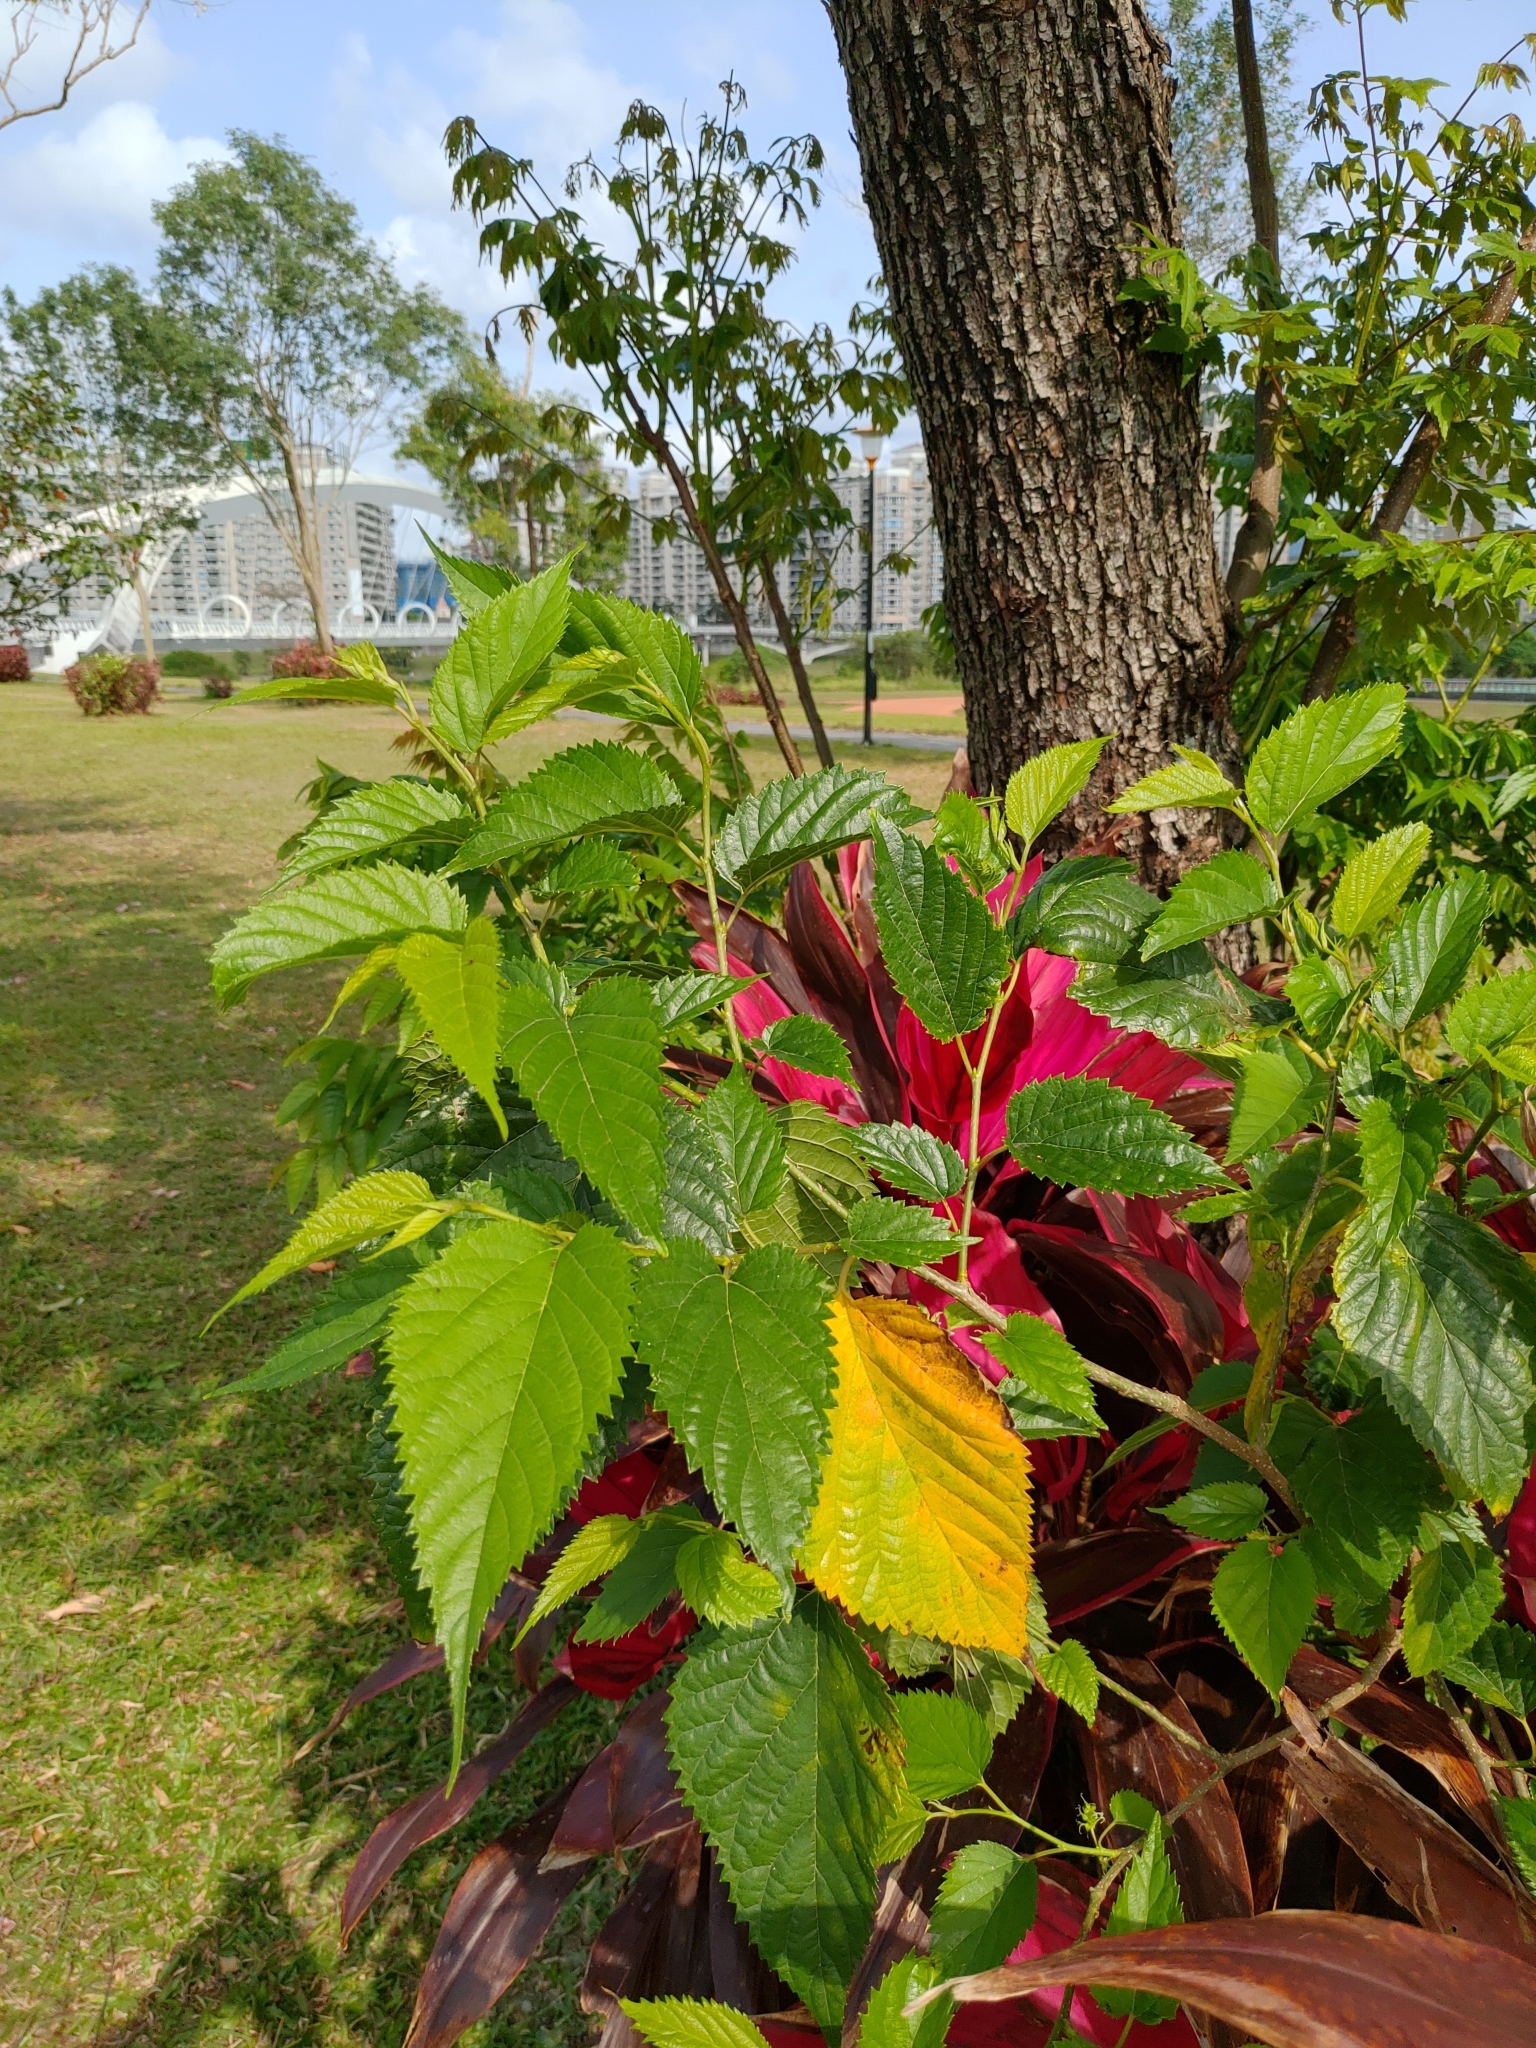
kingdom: Plantae
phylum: Tracheophyta
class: Magnoliopsida
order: Rosales
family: Moraceae
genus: Morus
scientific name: Morus indica
